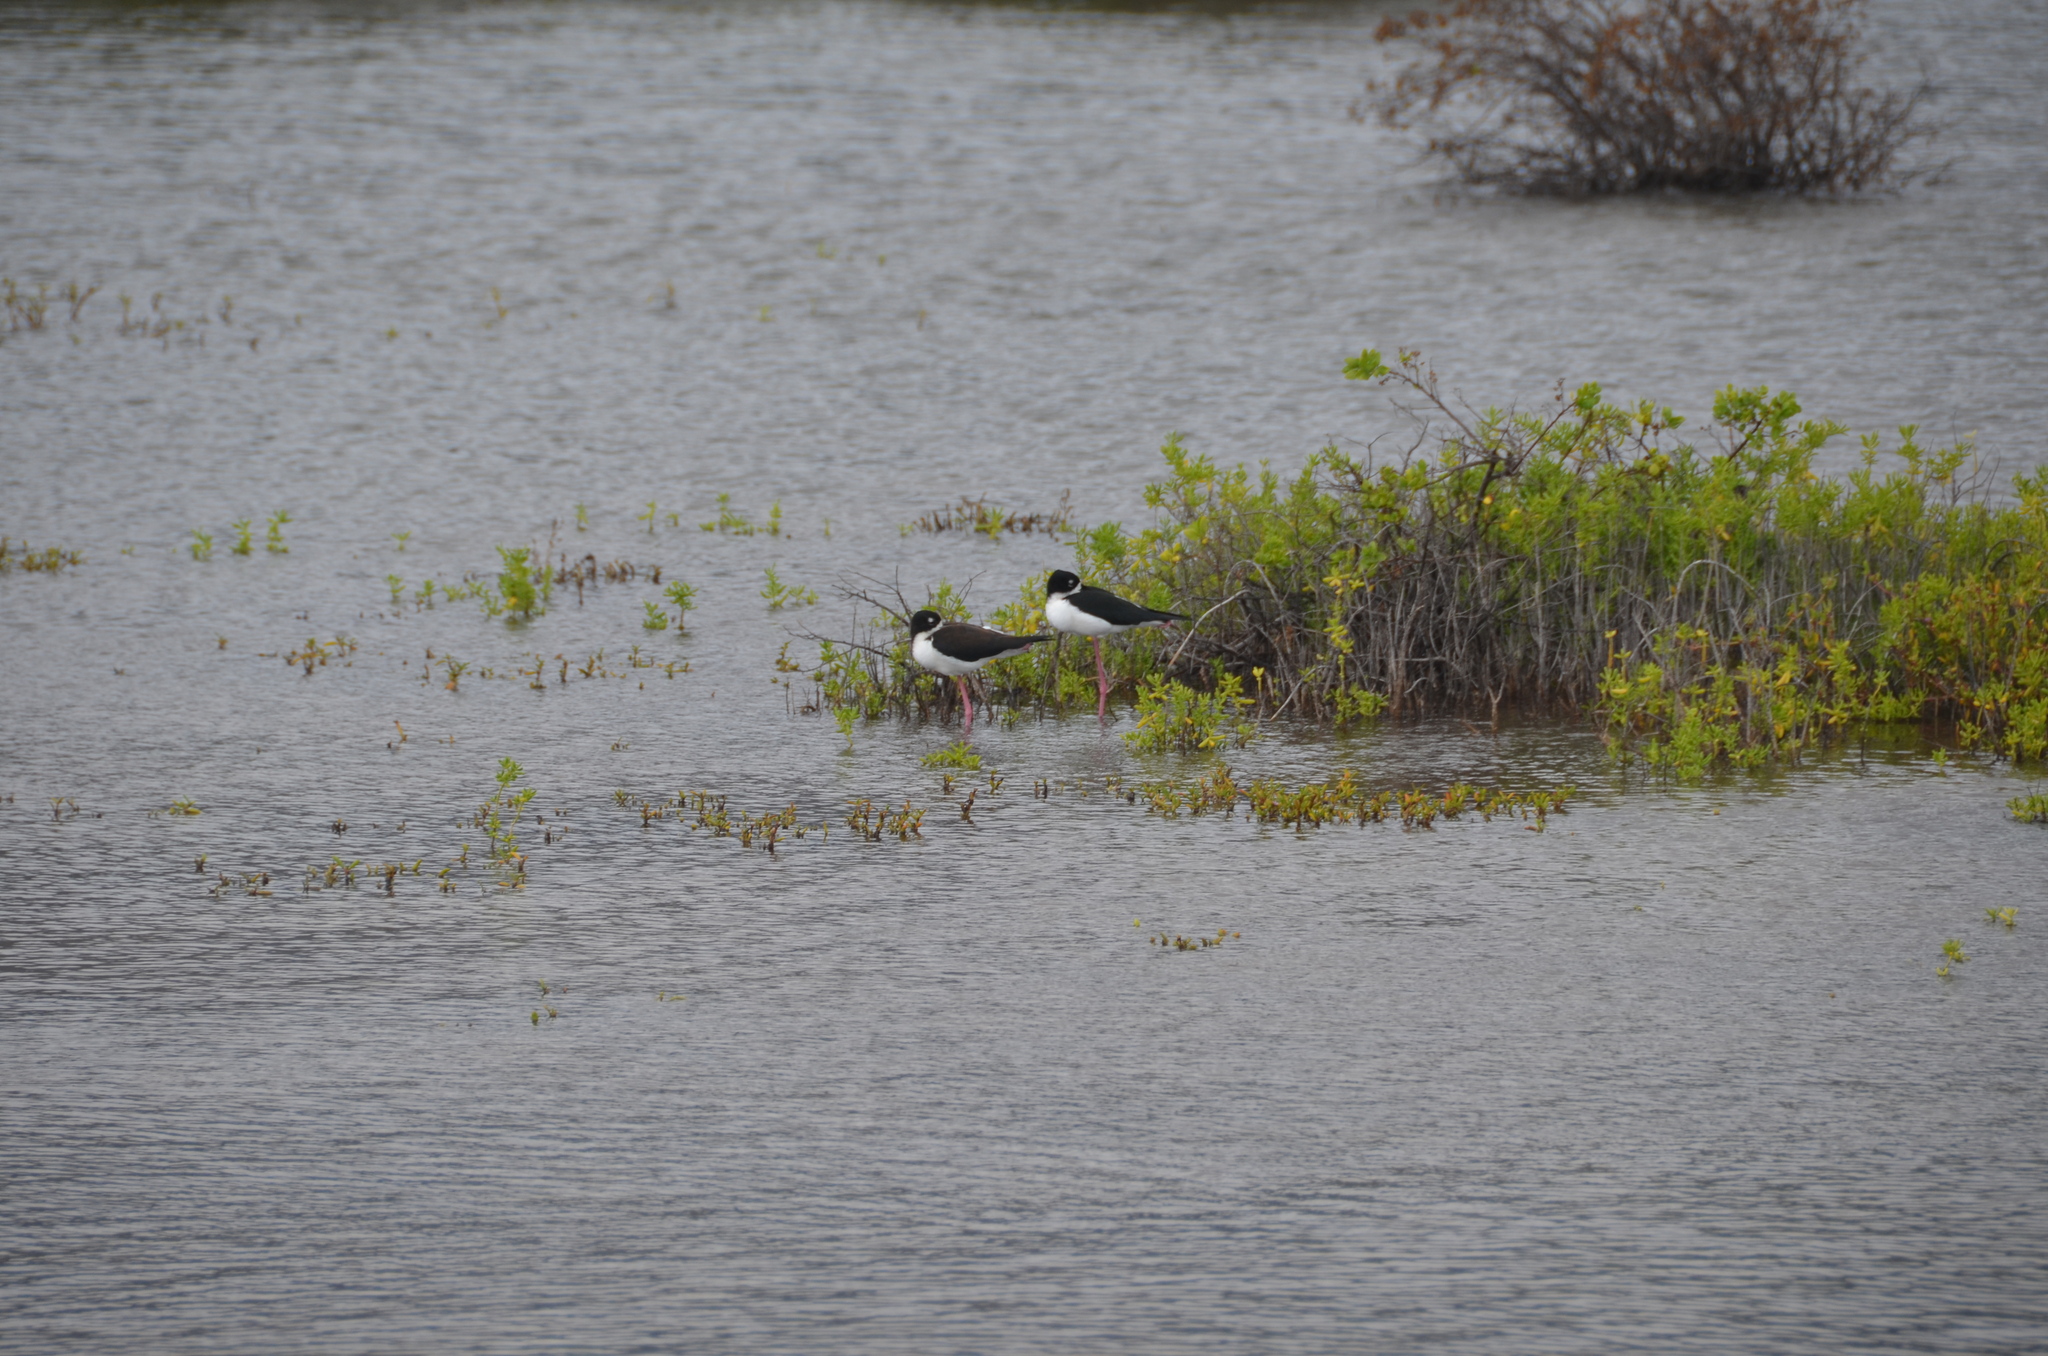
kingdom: Animalia
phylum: Chordata
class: Aves
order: Charadriiformes
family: Recurvirostridae
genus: Himantopus
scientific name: Himantopus mexicanus
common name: Black-necked stilt
